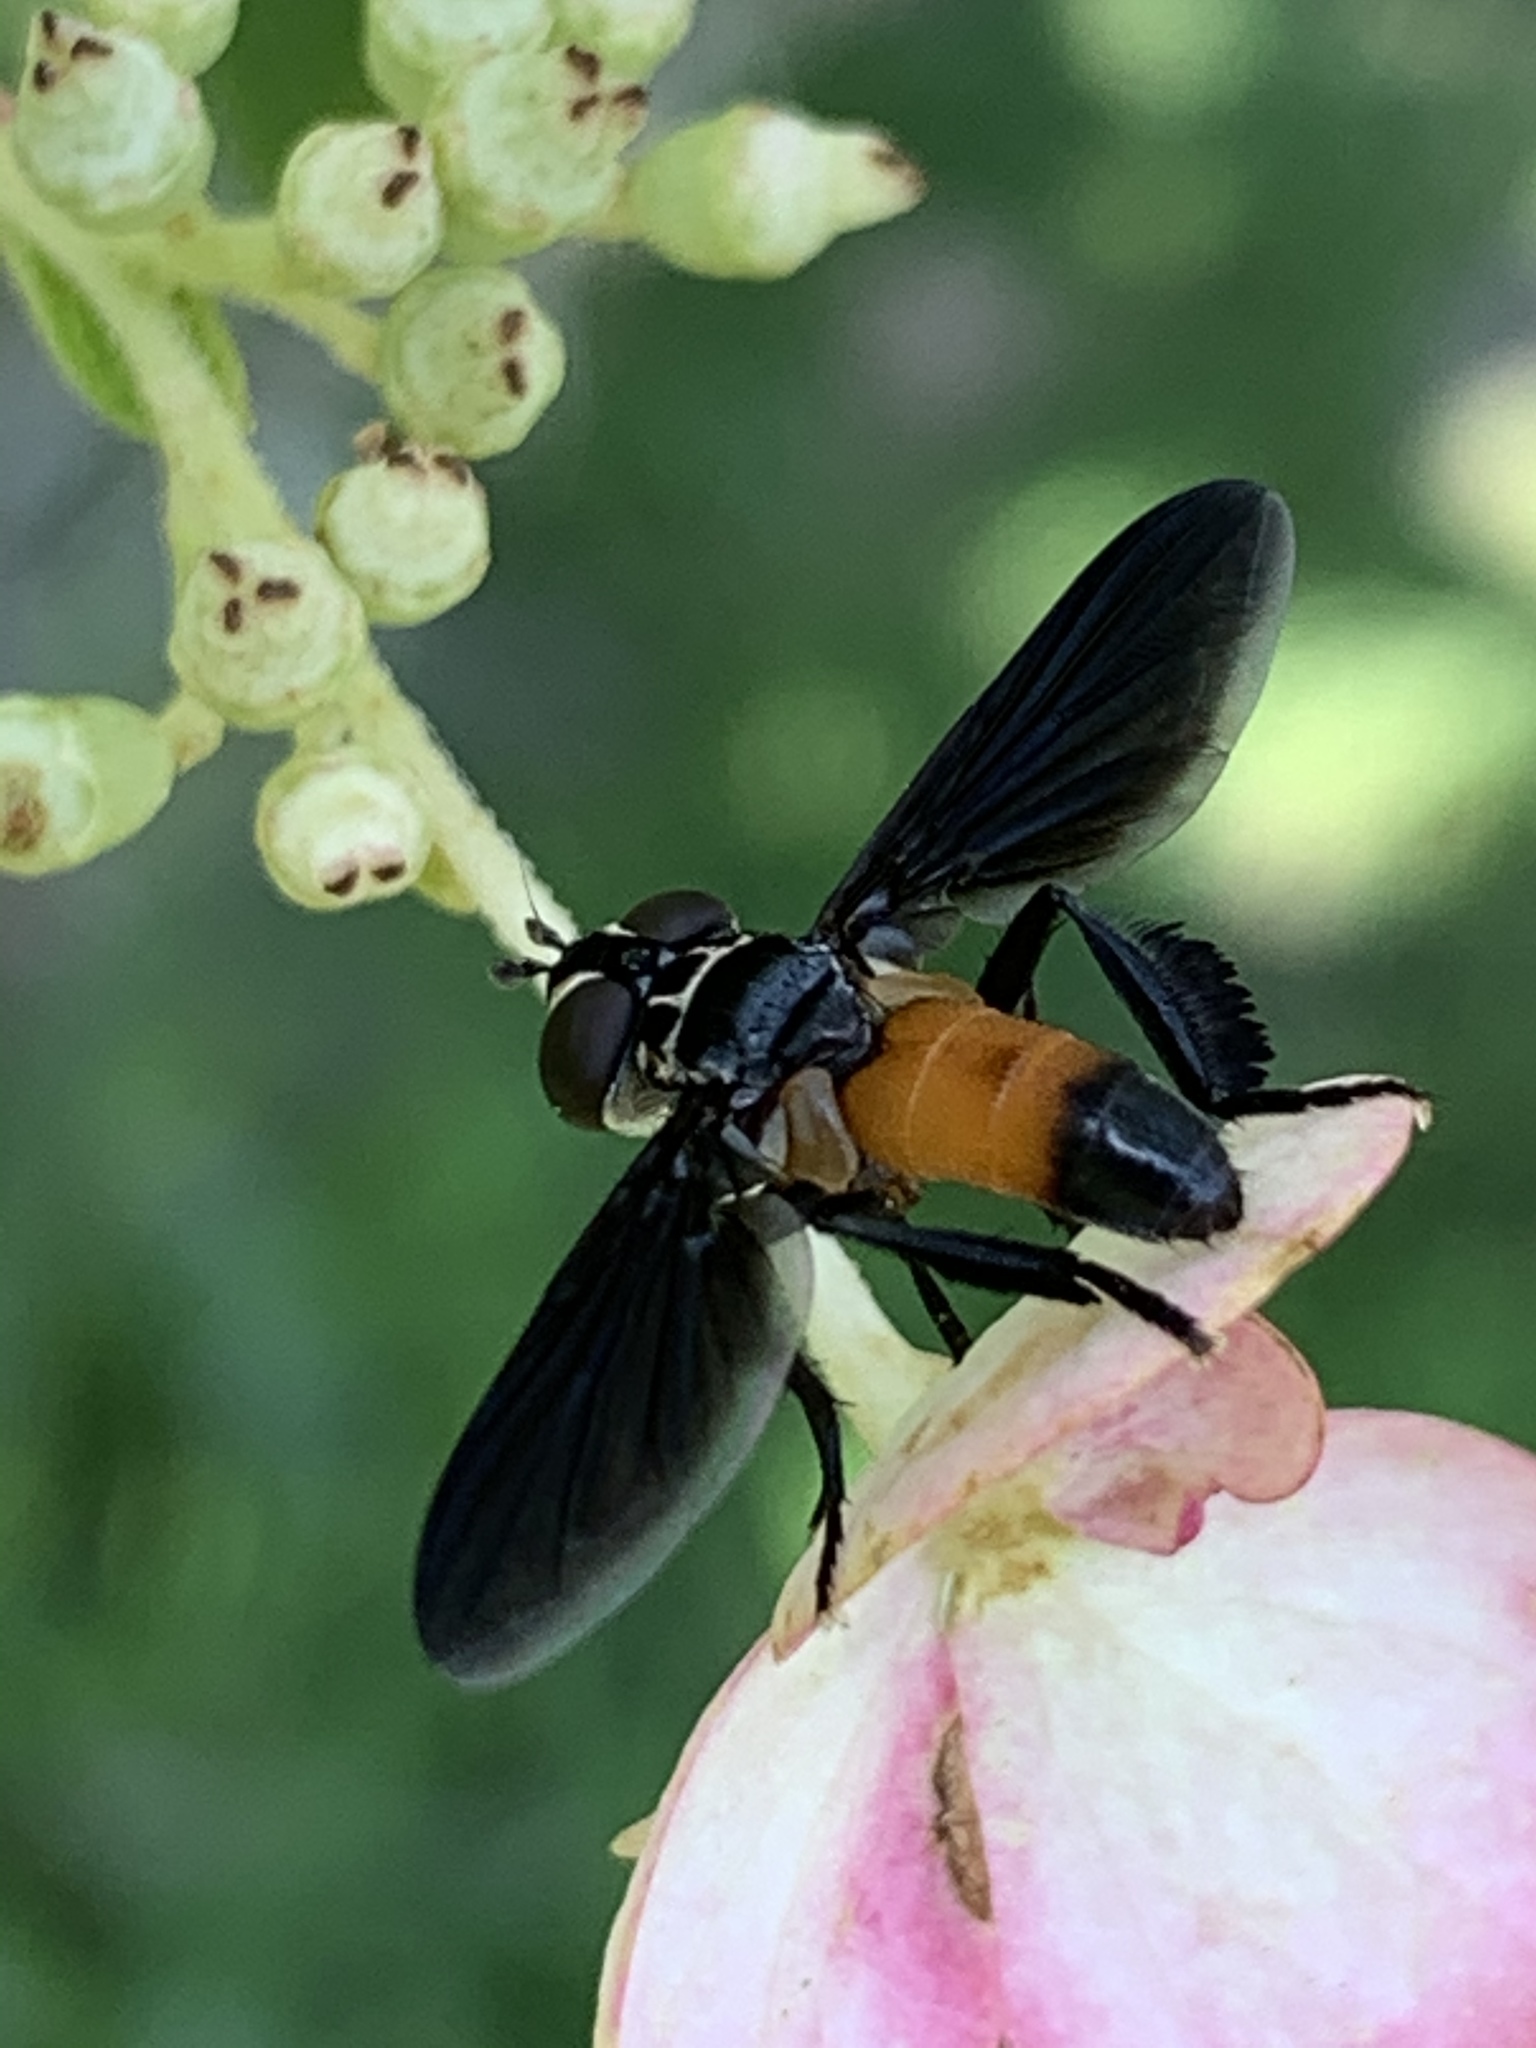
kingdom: Animalia
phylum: Arthropoda
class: Insecta
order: Diptera
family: Tachinidae
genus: Trichopoda
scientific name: Trichopoda pennipes
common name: Tachinid fly
